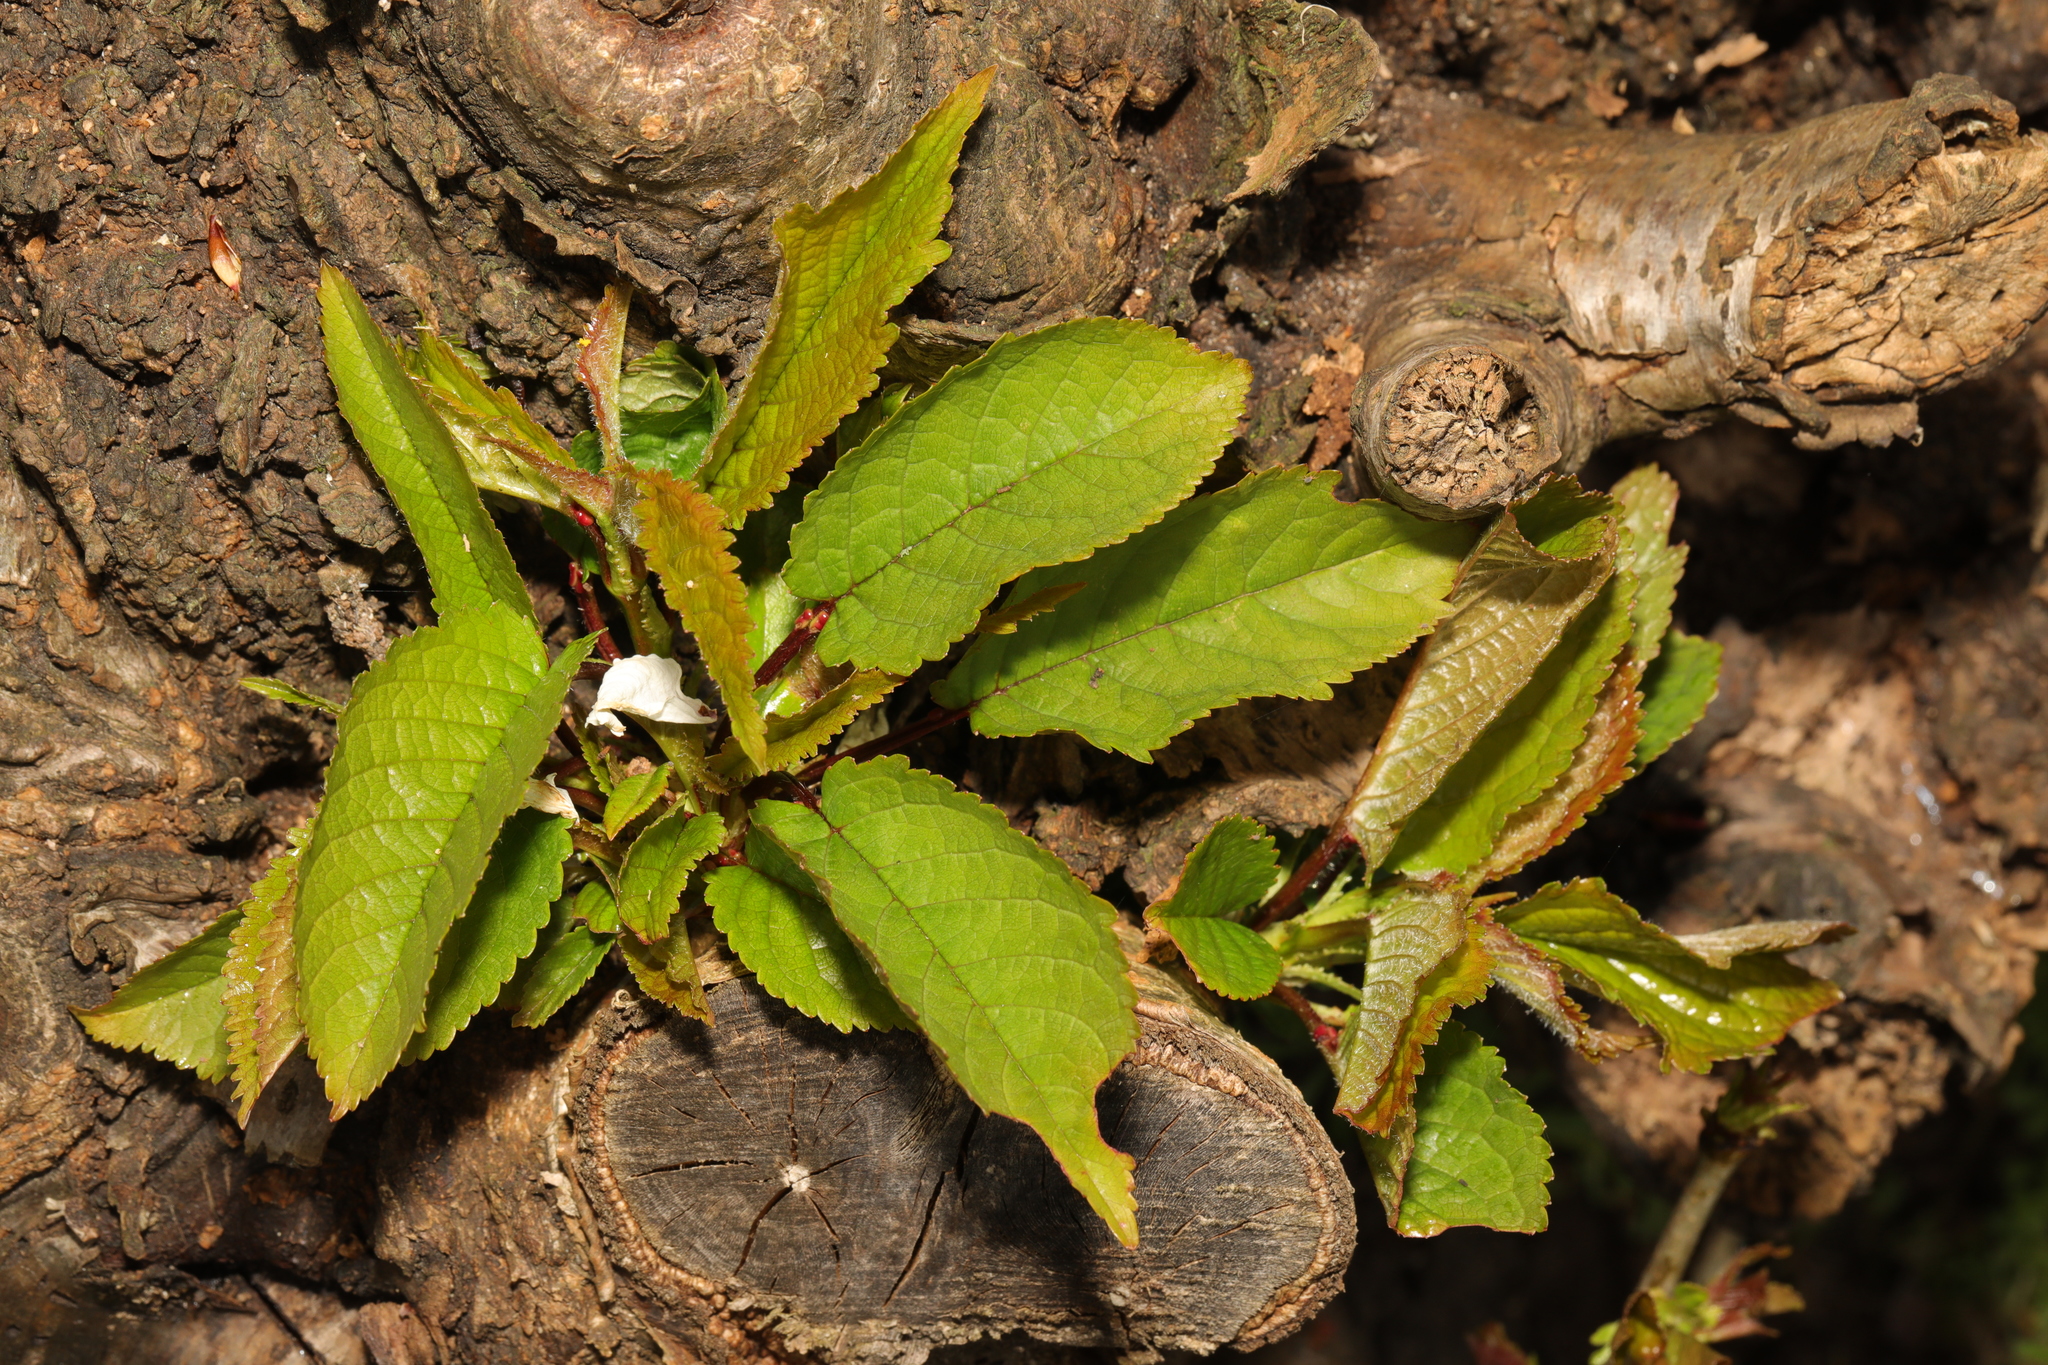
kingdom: Plantae
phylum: Tracheophyta
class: Magnoliopsida
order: Rosales
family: Rosaceae
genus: Prunus
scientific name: Prunus avium
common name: Sweet cherry
